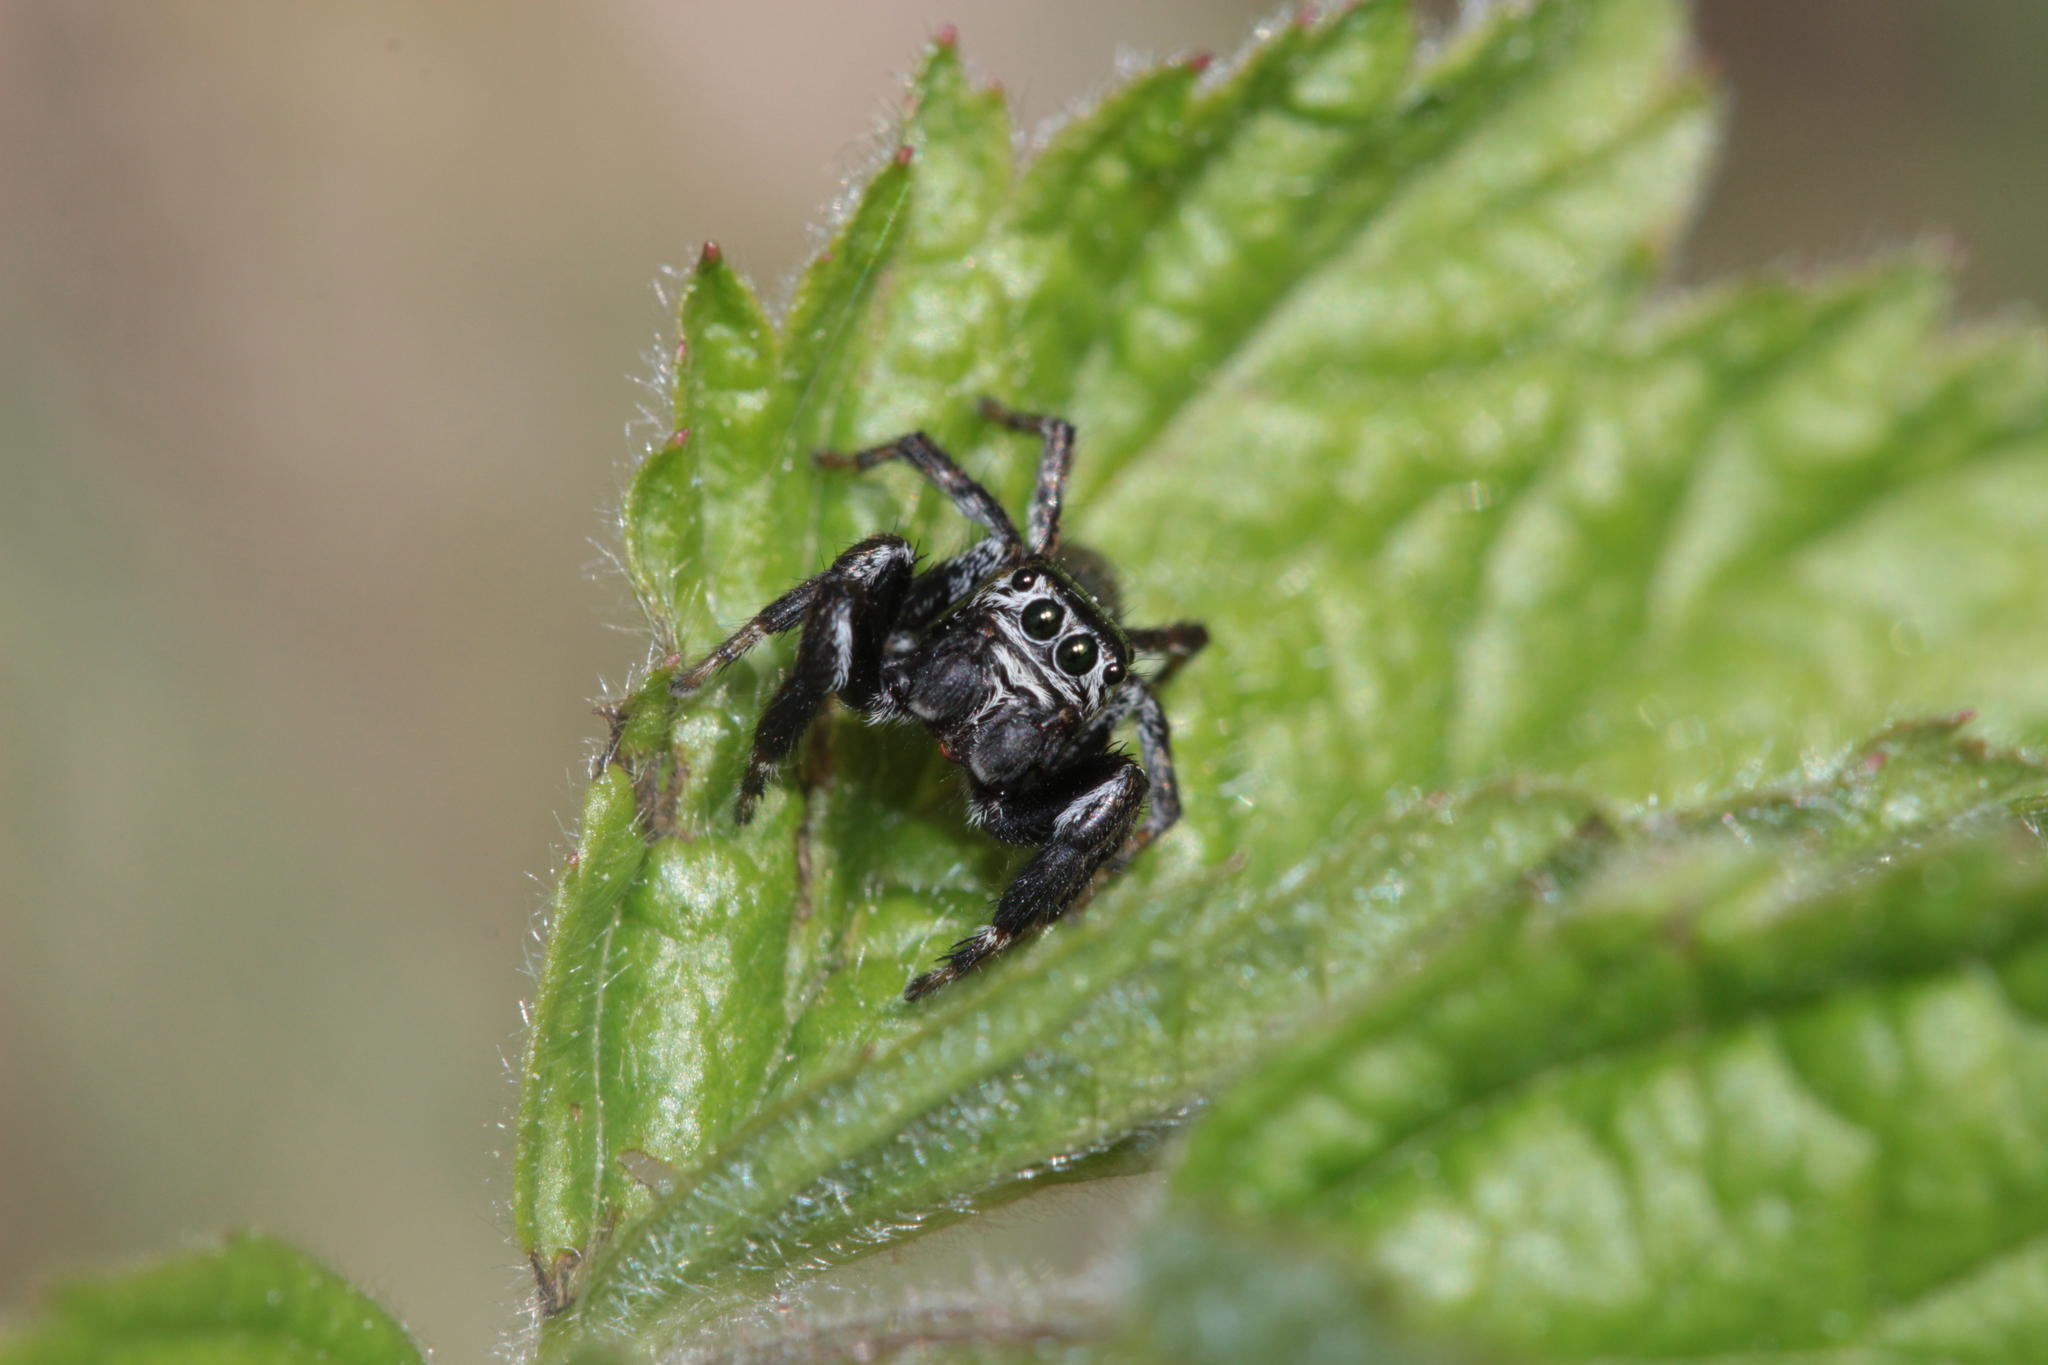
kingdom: Animalia
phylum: Arthropoda
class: Arachnida
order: Araneae
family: Salticidae
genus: Evarcha
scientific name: Evarcha arcuata
